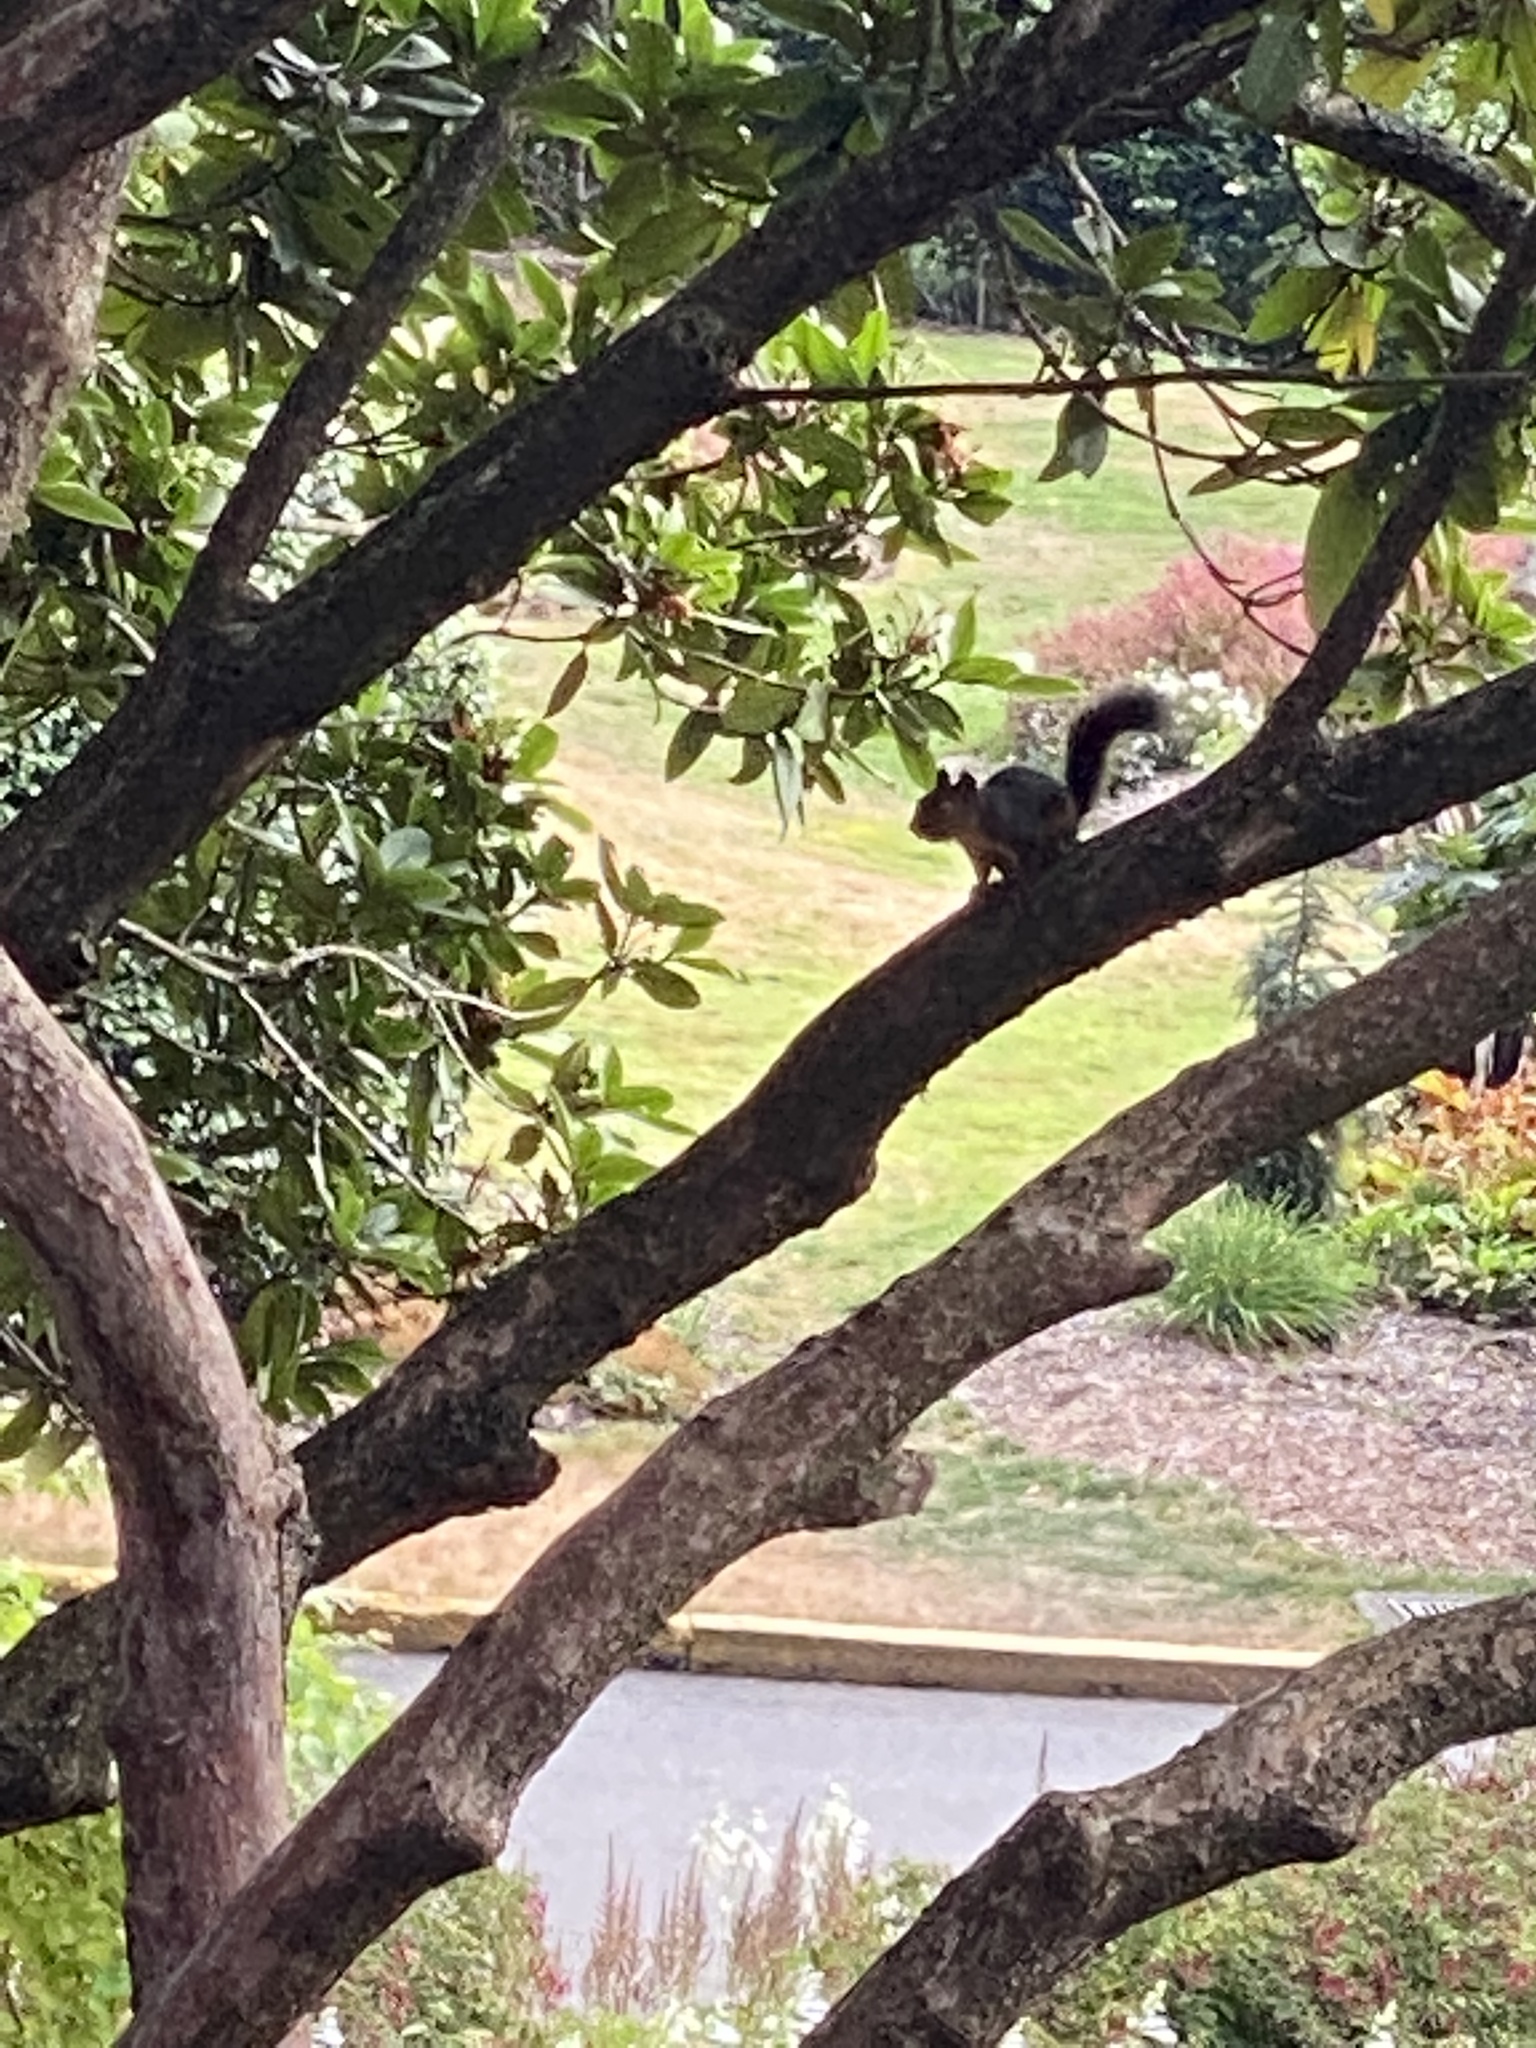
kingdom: Animalia
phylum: Chordata
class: Mammalia
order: Rodentia
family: Sciuridae
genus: Tamiasciurus
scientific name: Tamiasciurus douglasii
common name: Douglas's squirrel
